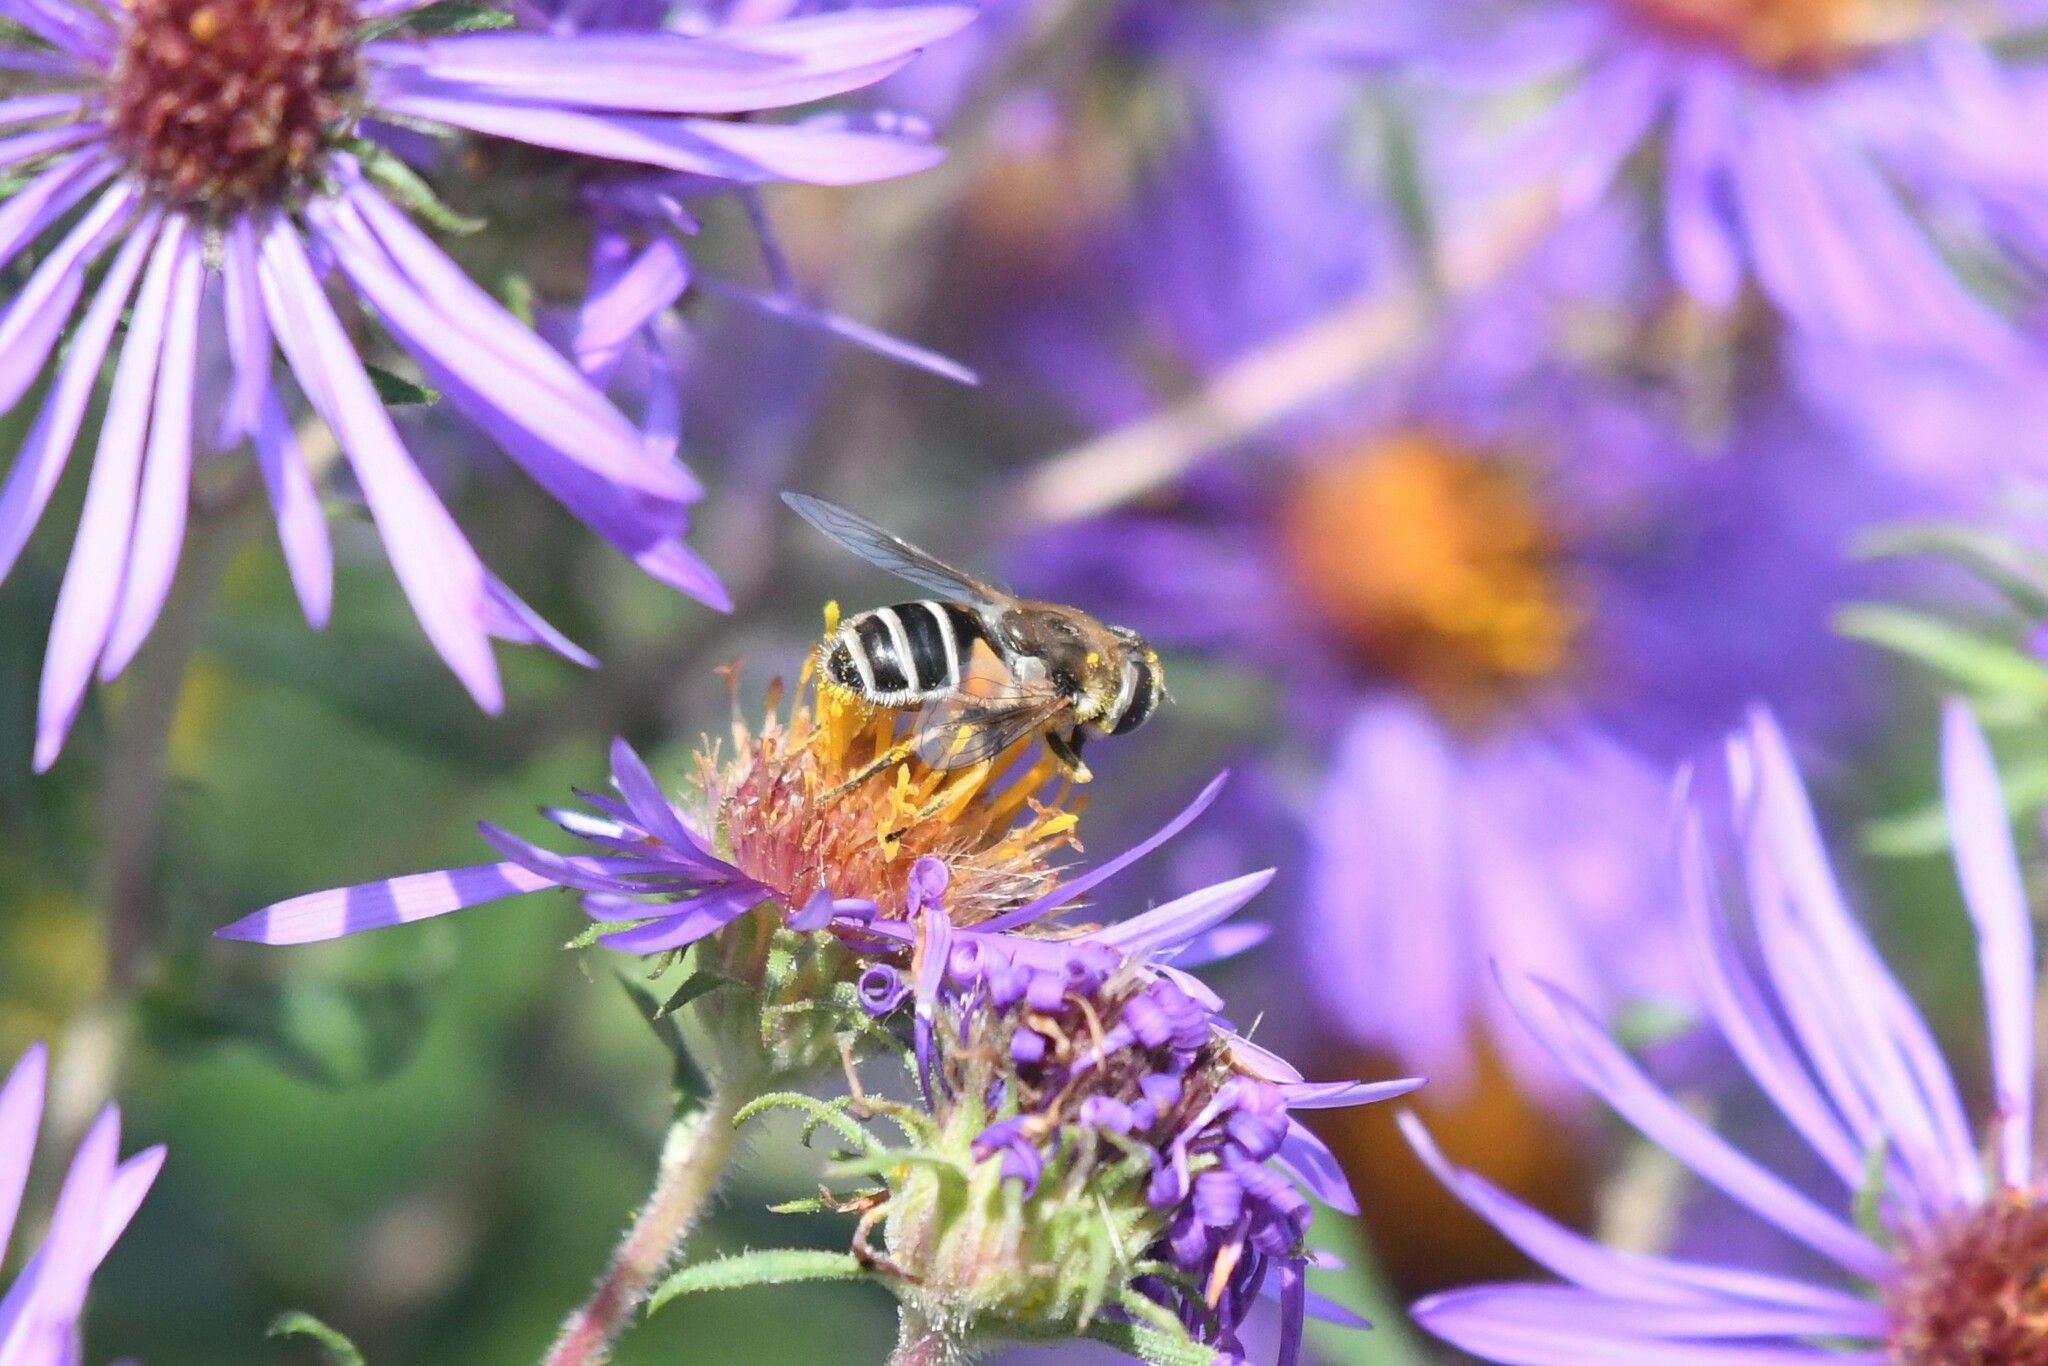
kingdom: Animalia
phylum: Arthropoda
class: Insecta
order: Diptera
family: Syrphidae
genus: Eristalis
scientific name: Eristalis arbustorum
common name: Hover fly
